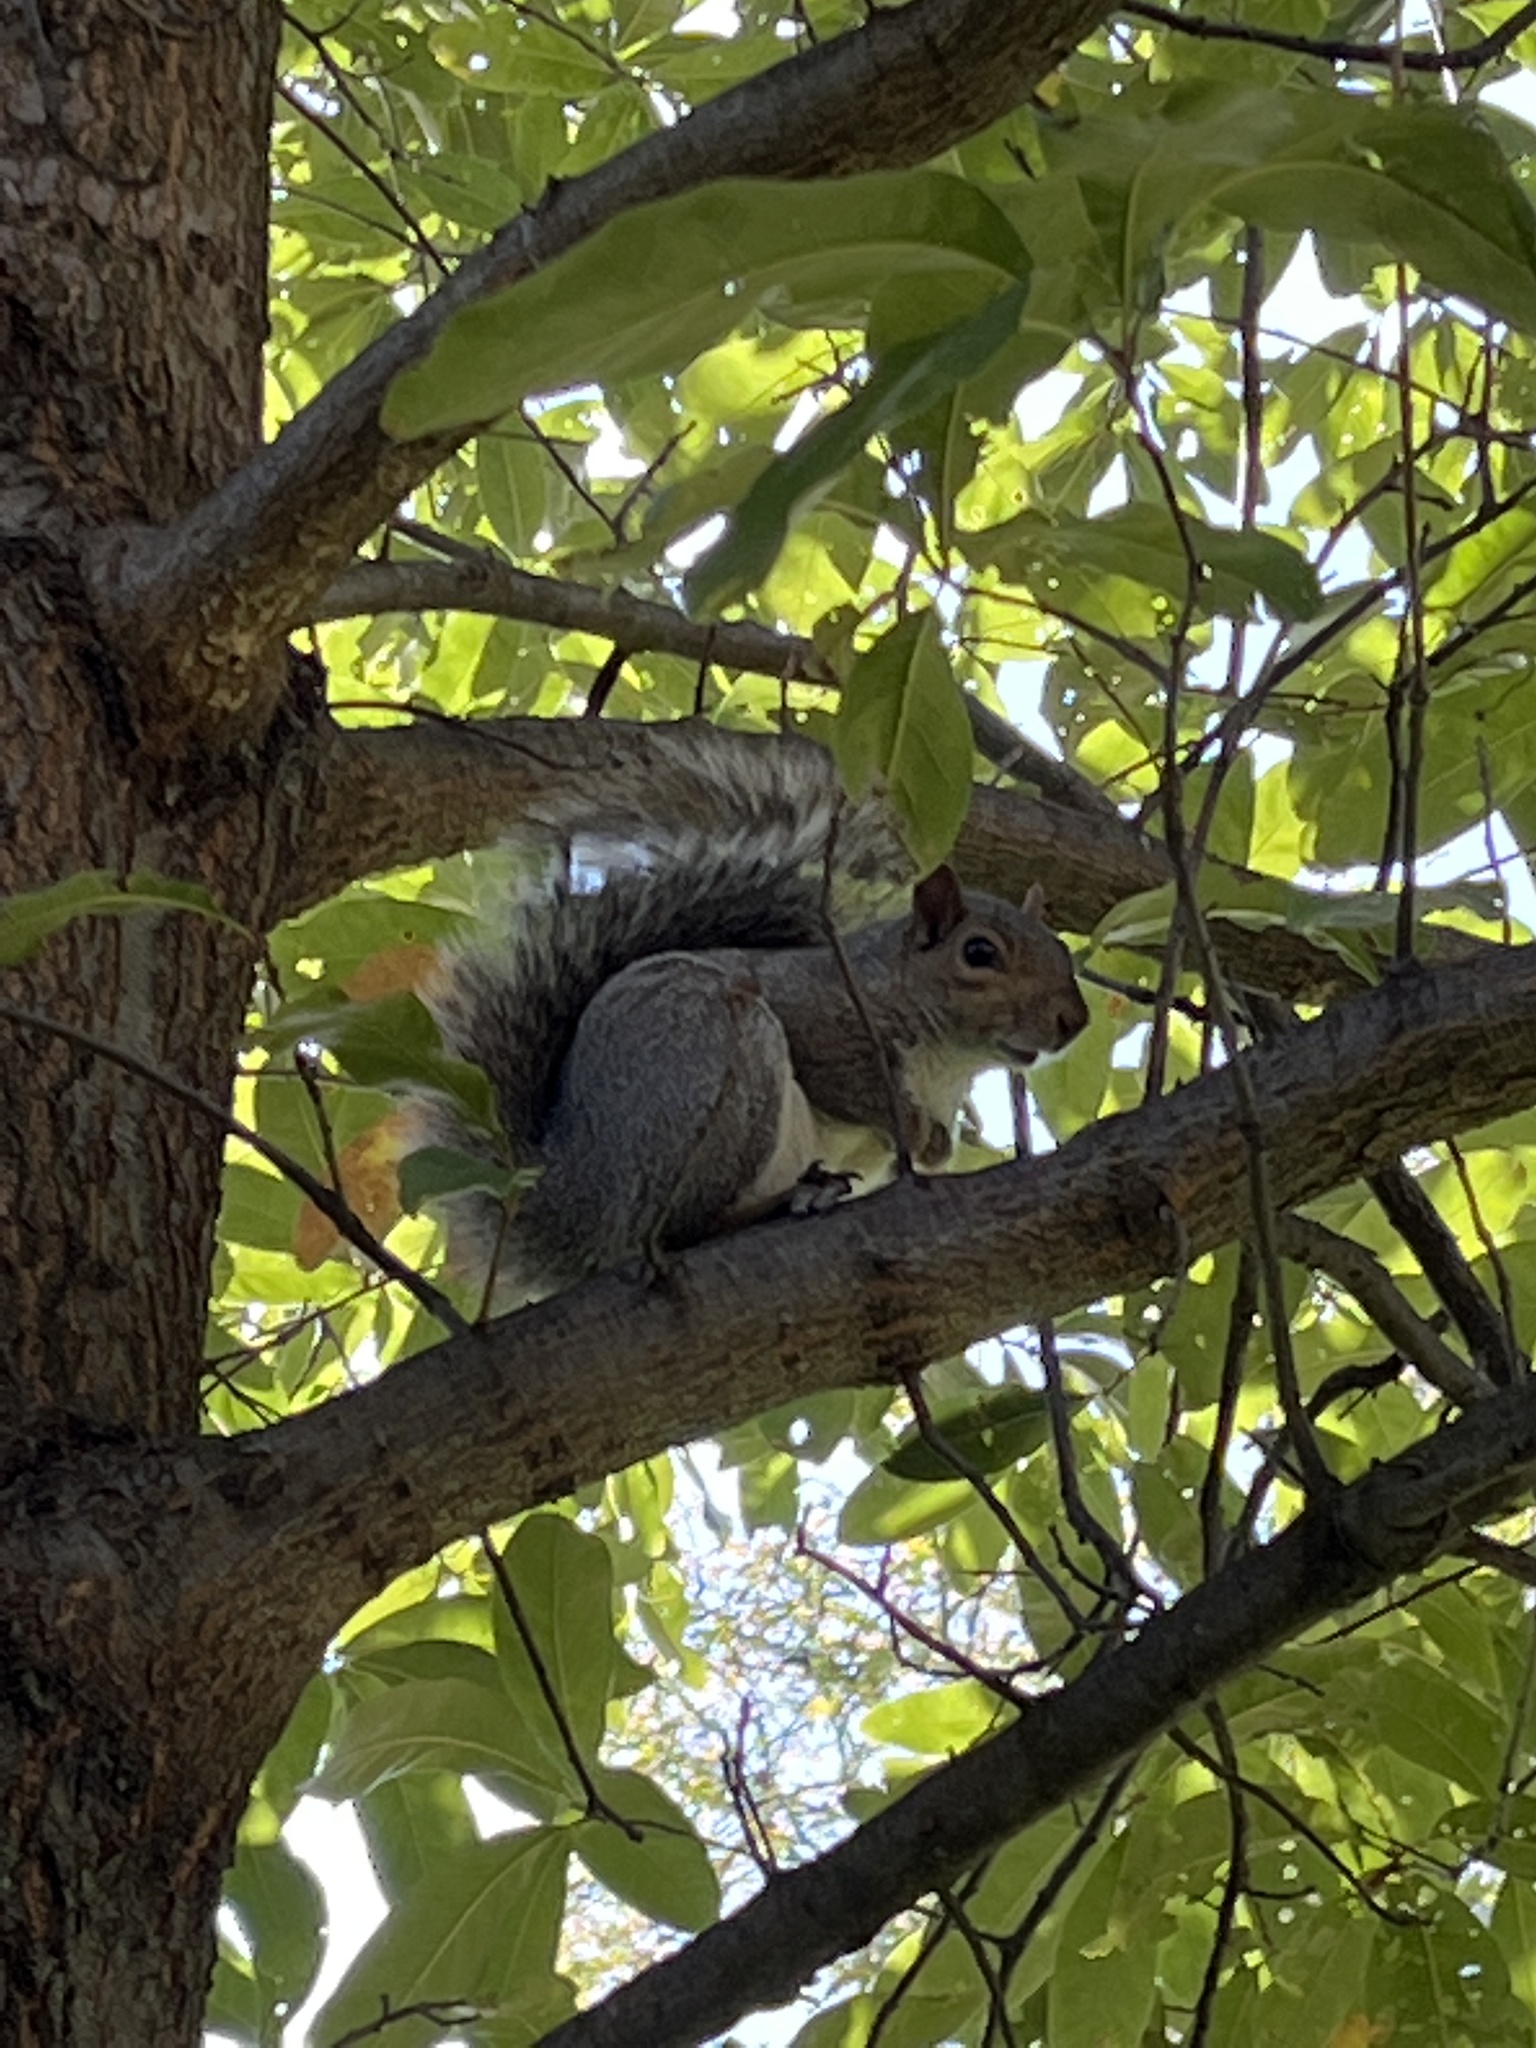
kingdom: Animalia
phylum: Chordata
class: Mammalia
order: Rodentia
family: Sciuridae
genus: Sciurus
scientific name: Sciurus carolinensis
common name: Eastern gray squirrel
